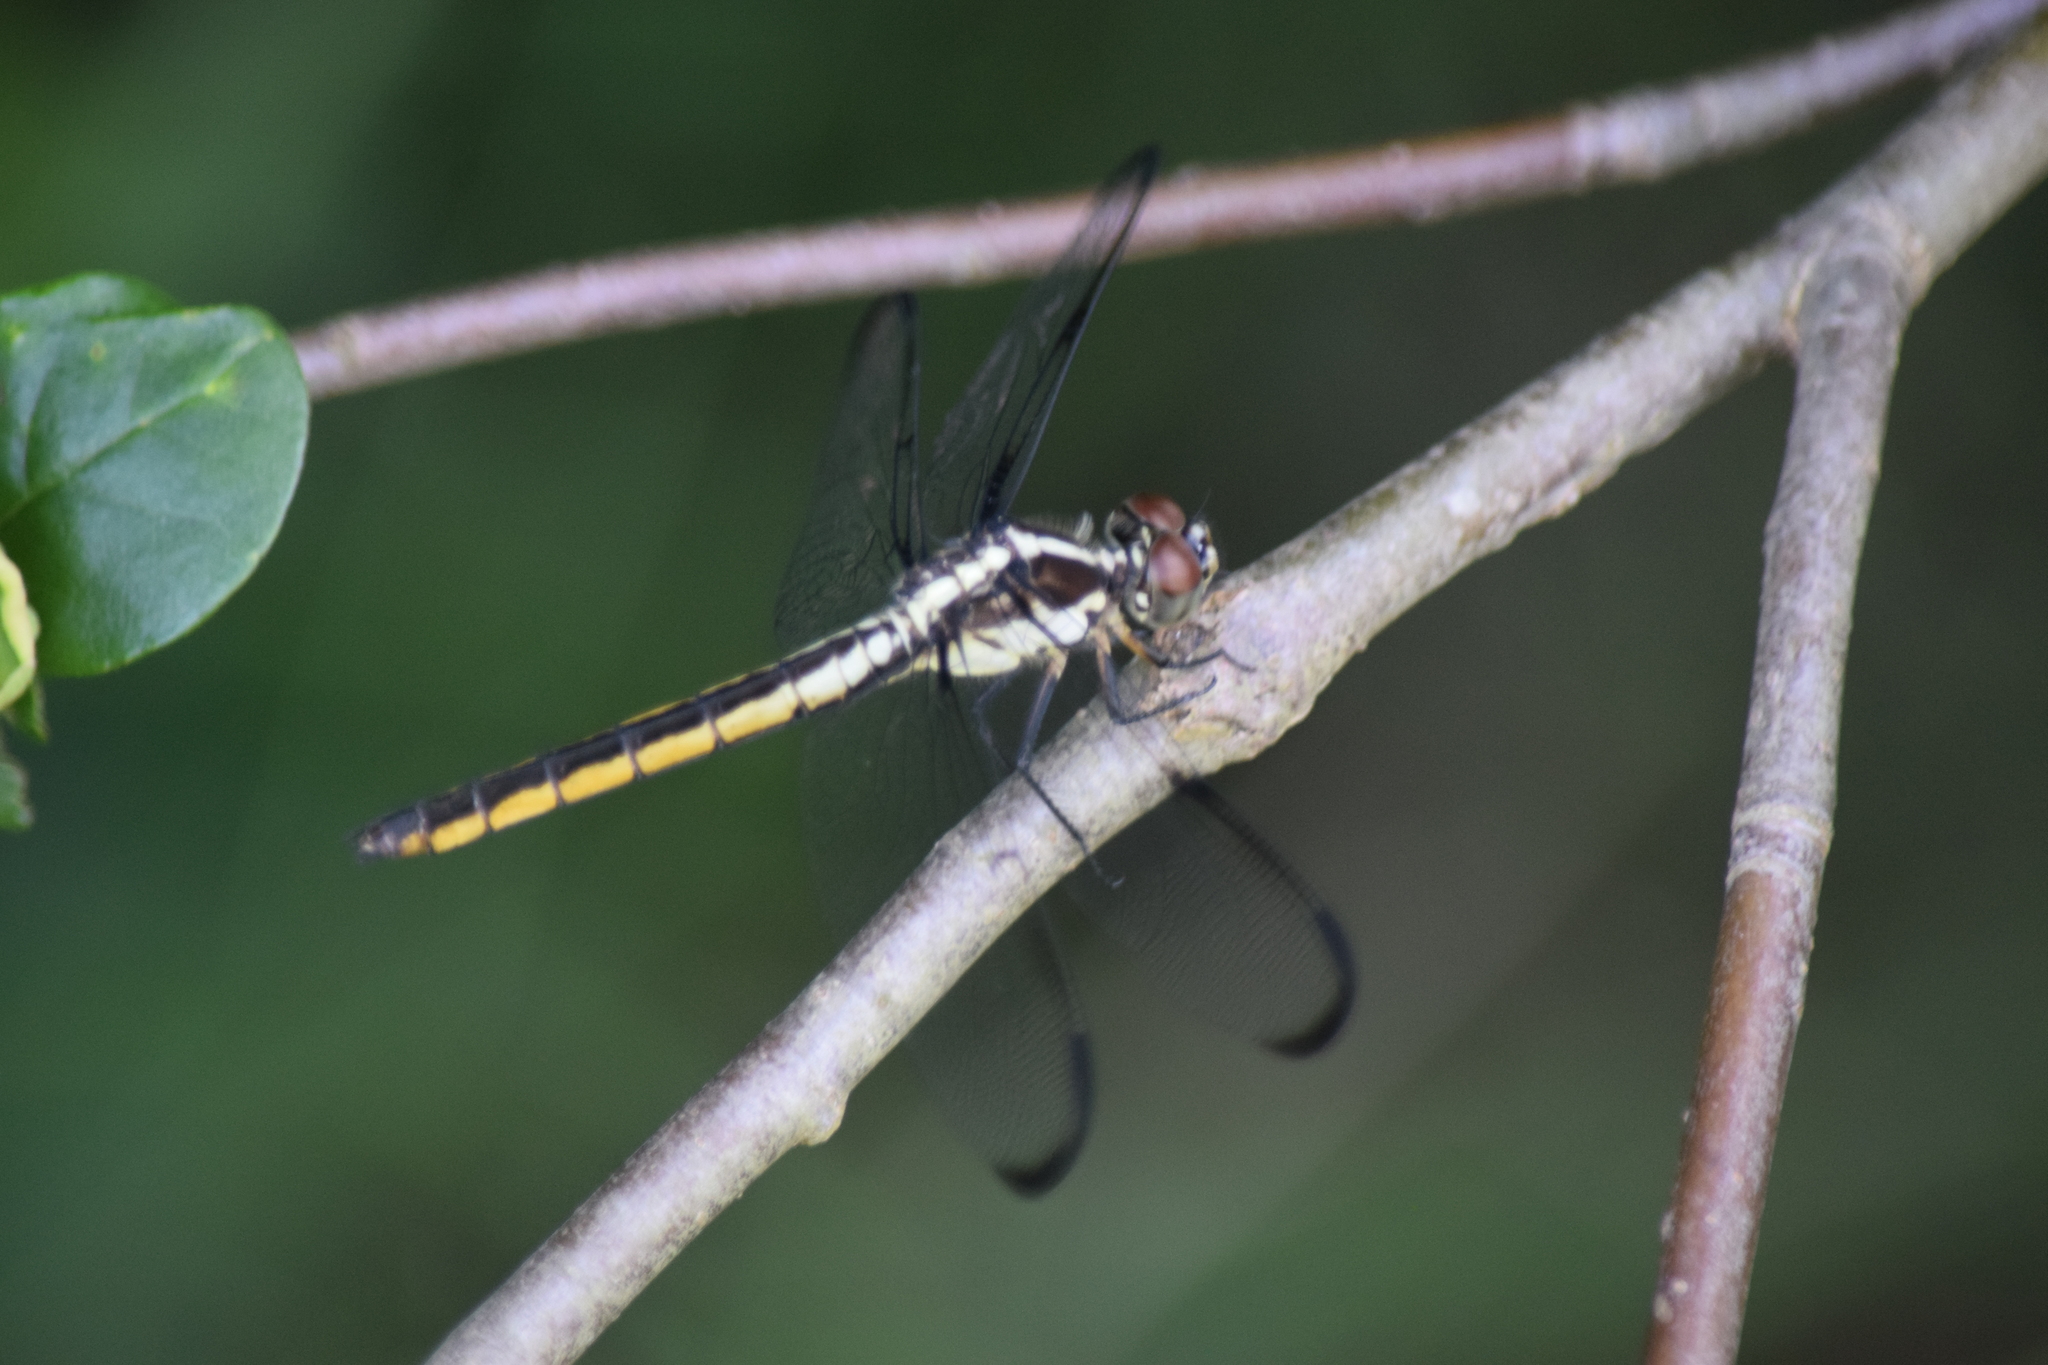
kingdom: Animalia
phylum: Arthropoda
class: Insecta
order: Odonata
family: Libellulidae
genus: Libellula
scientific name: Libellula incesta
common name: Slaty skimmer
